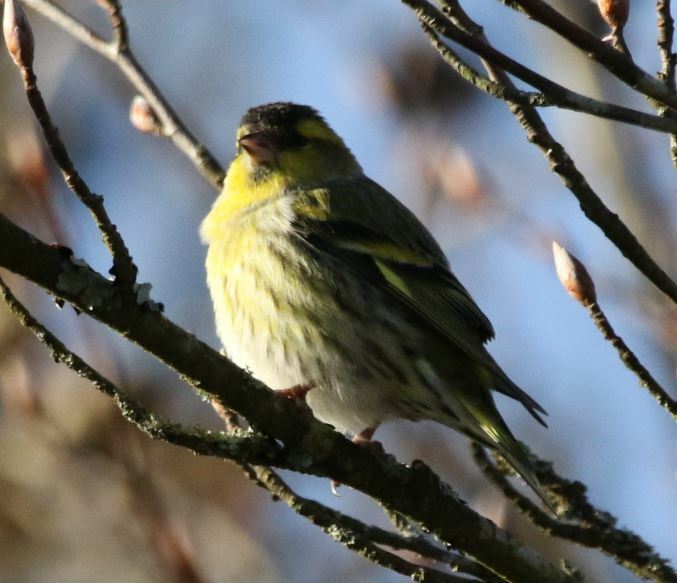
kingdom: Animalia
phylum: Chordata
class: Aves
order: Passeriformes
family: Fringillidae
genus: Spinus
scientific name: Spinus spinus
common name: Eurasian siskin
